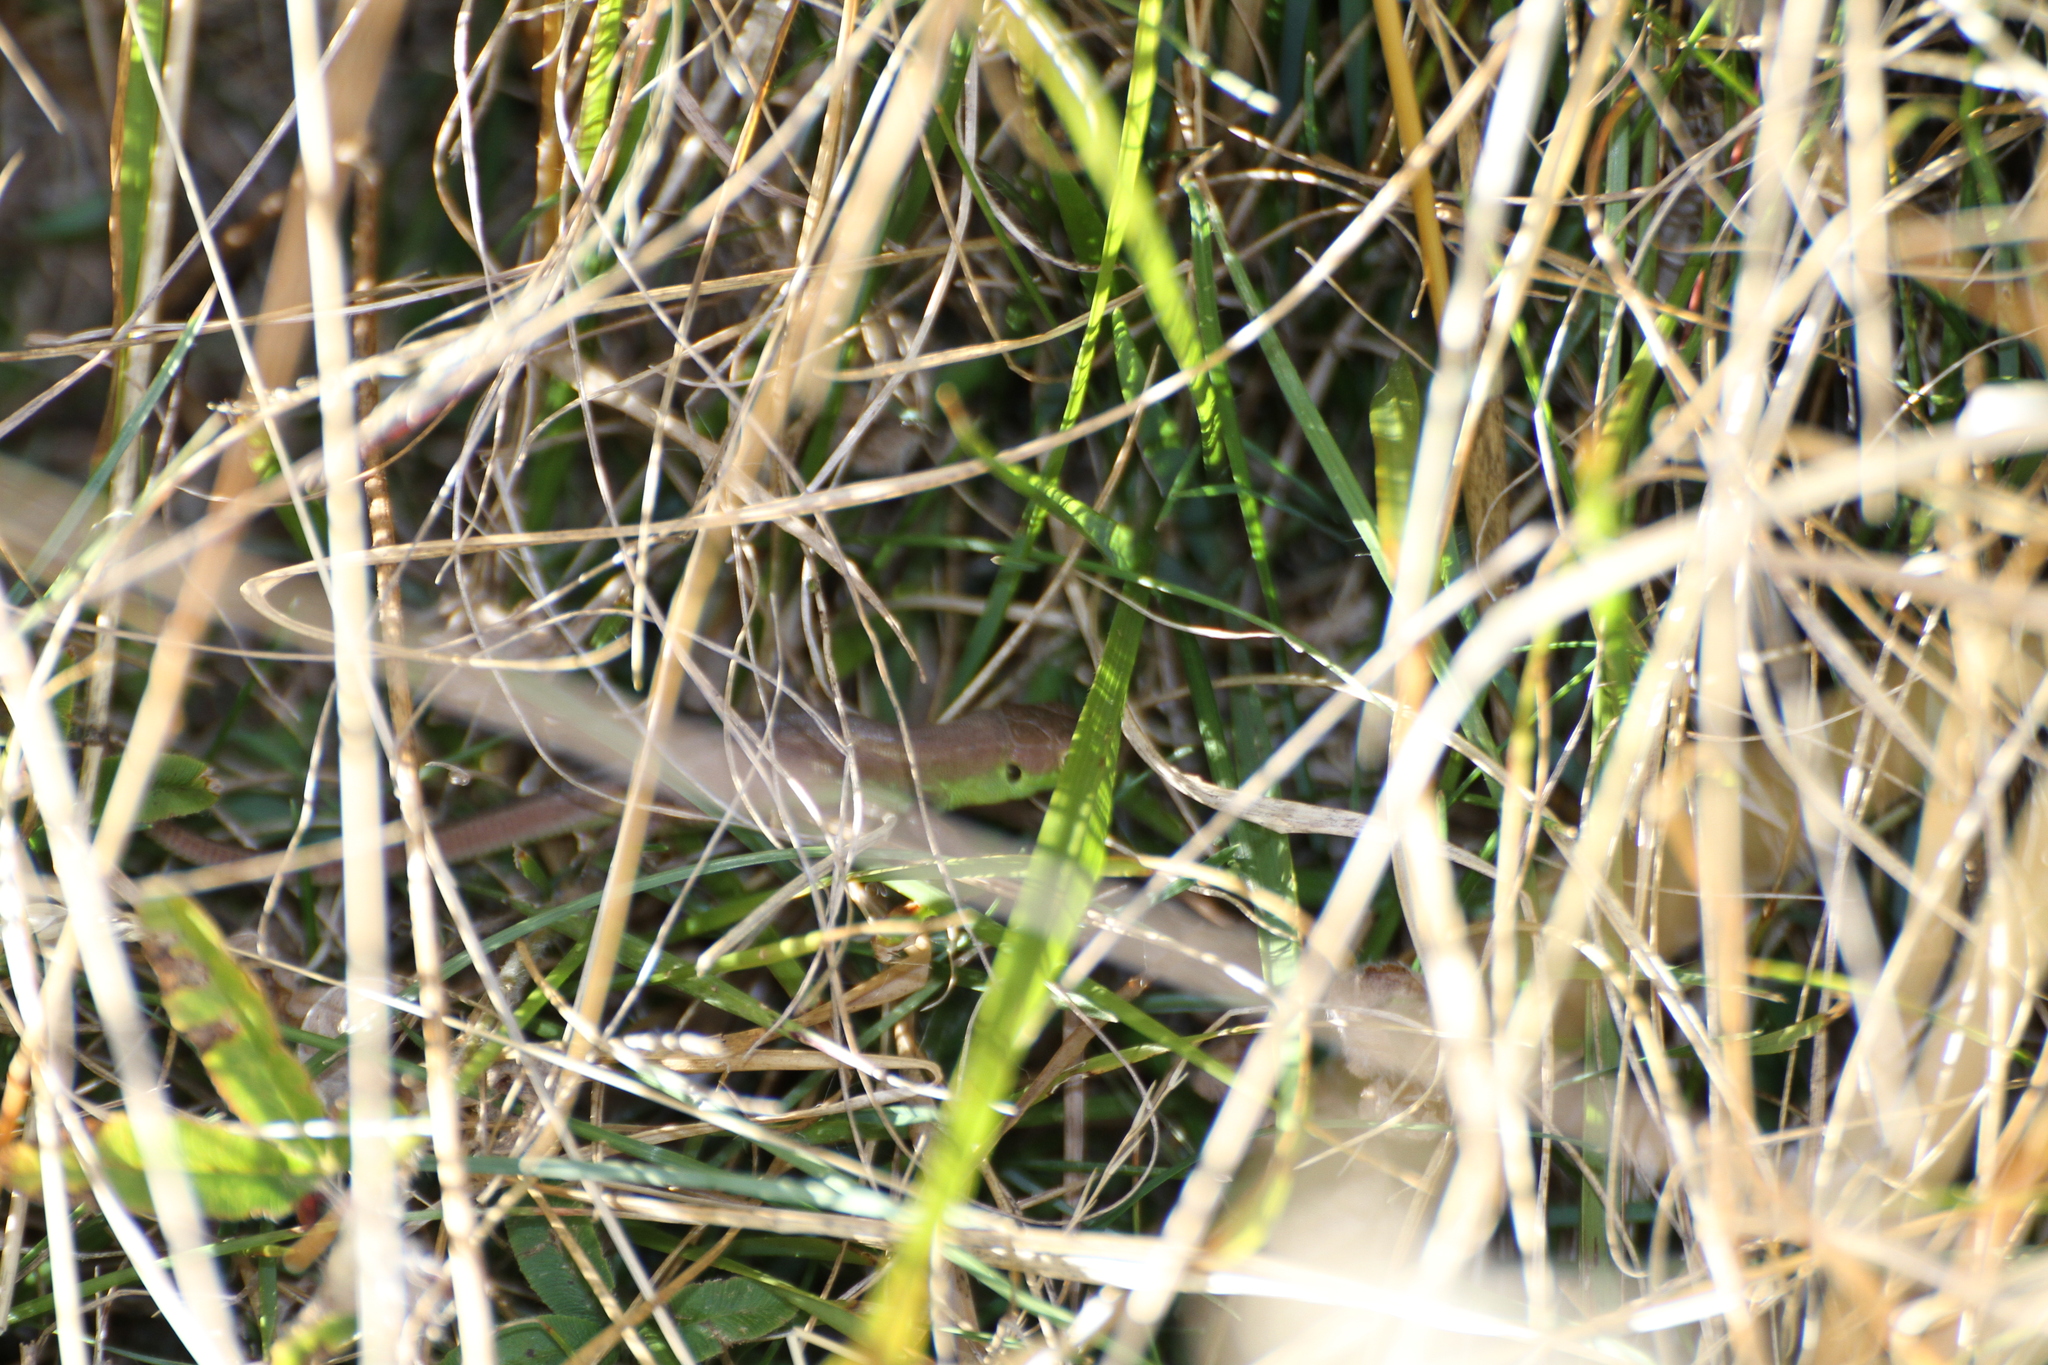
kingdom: Animalia
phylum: Chordata
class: Squamata
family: Lacertidae
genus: Lacerta
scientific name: Lacerta bilineata
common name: Western green lizard
